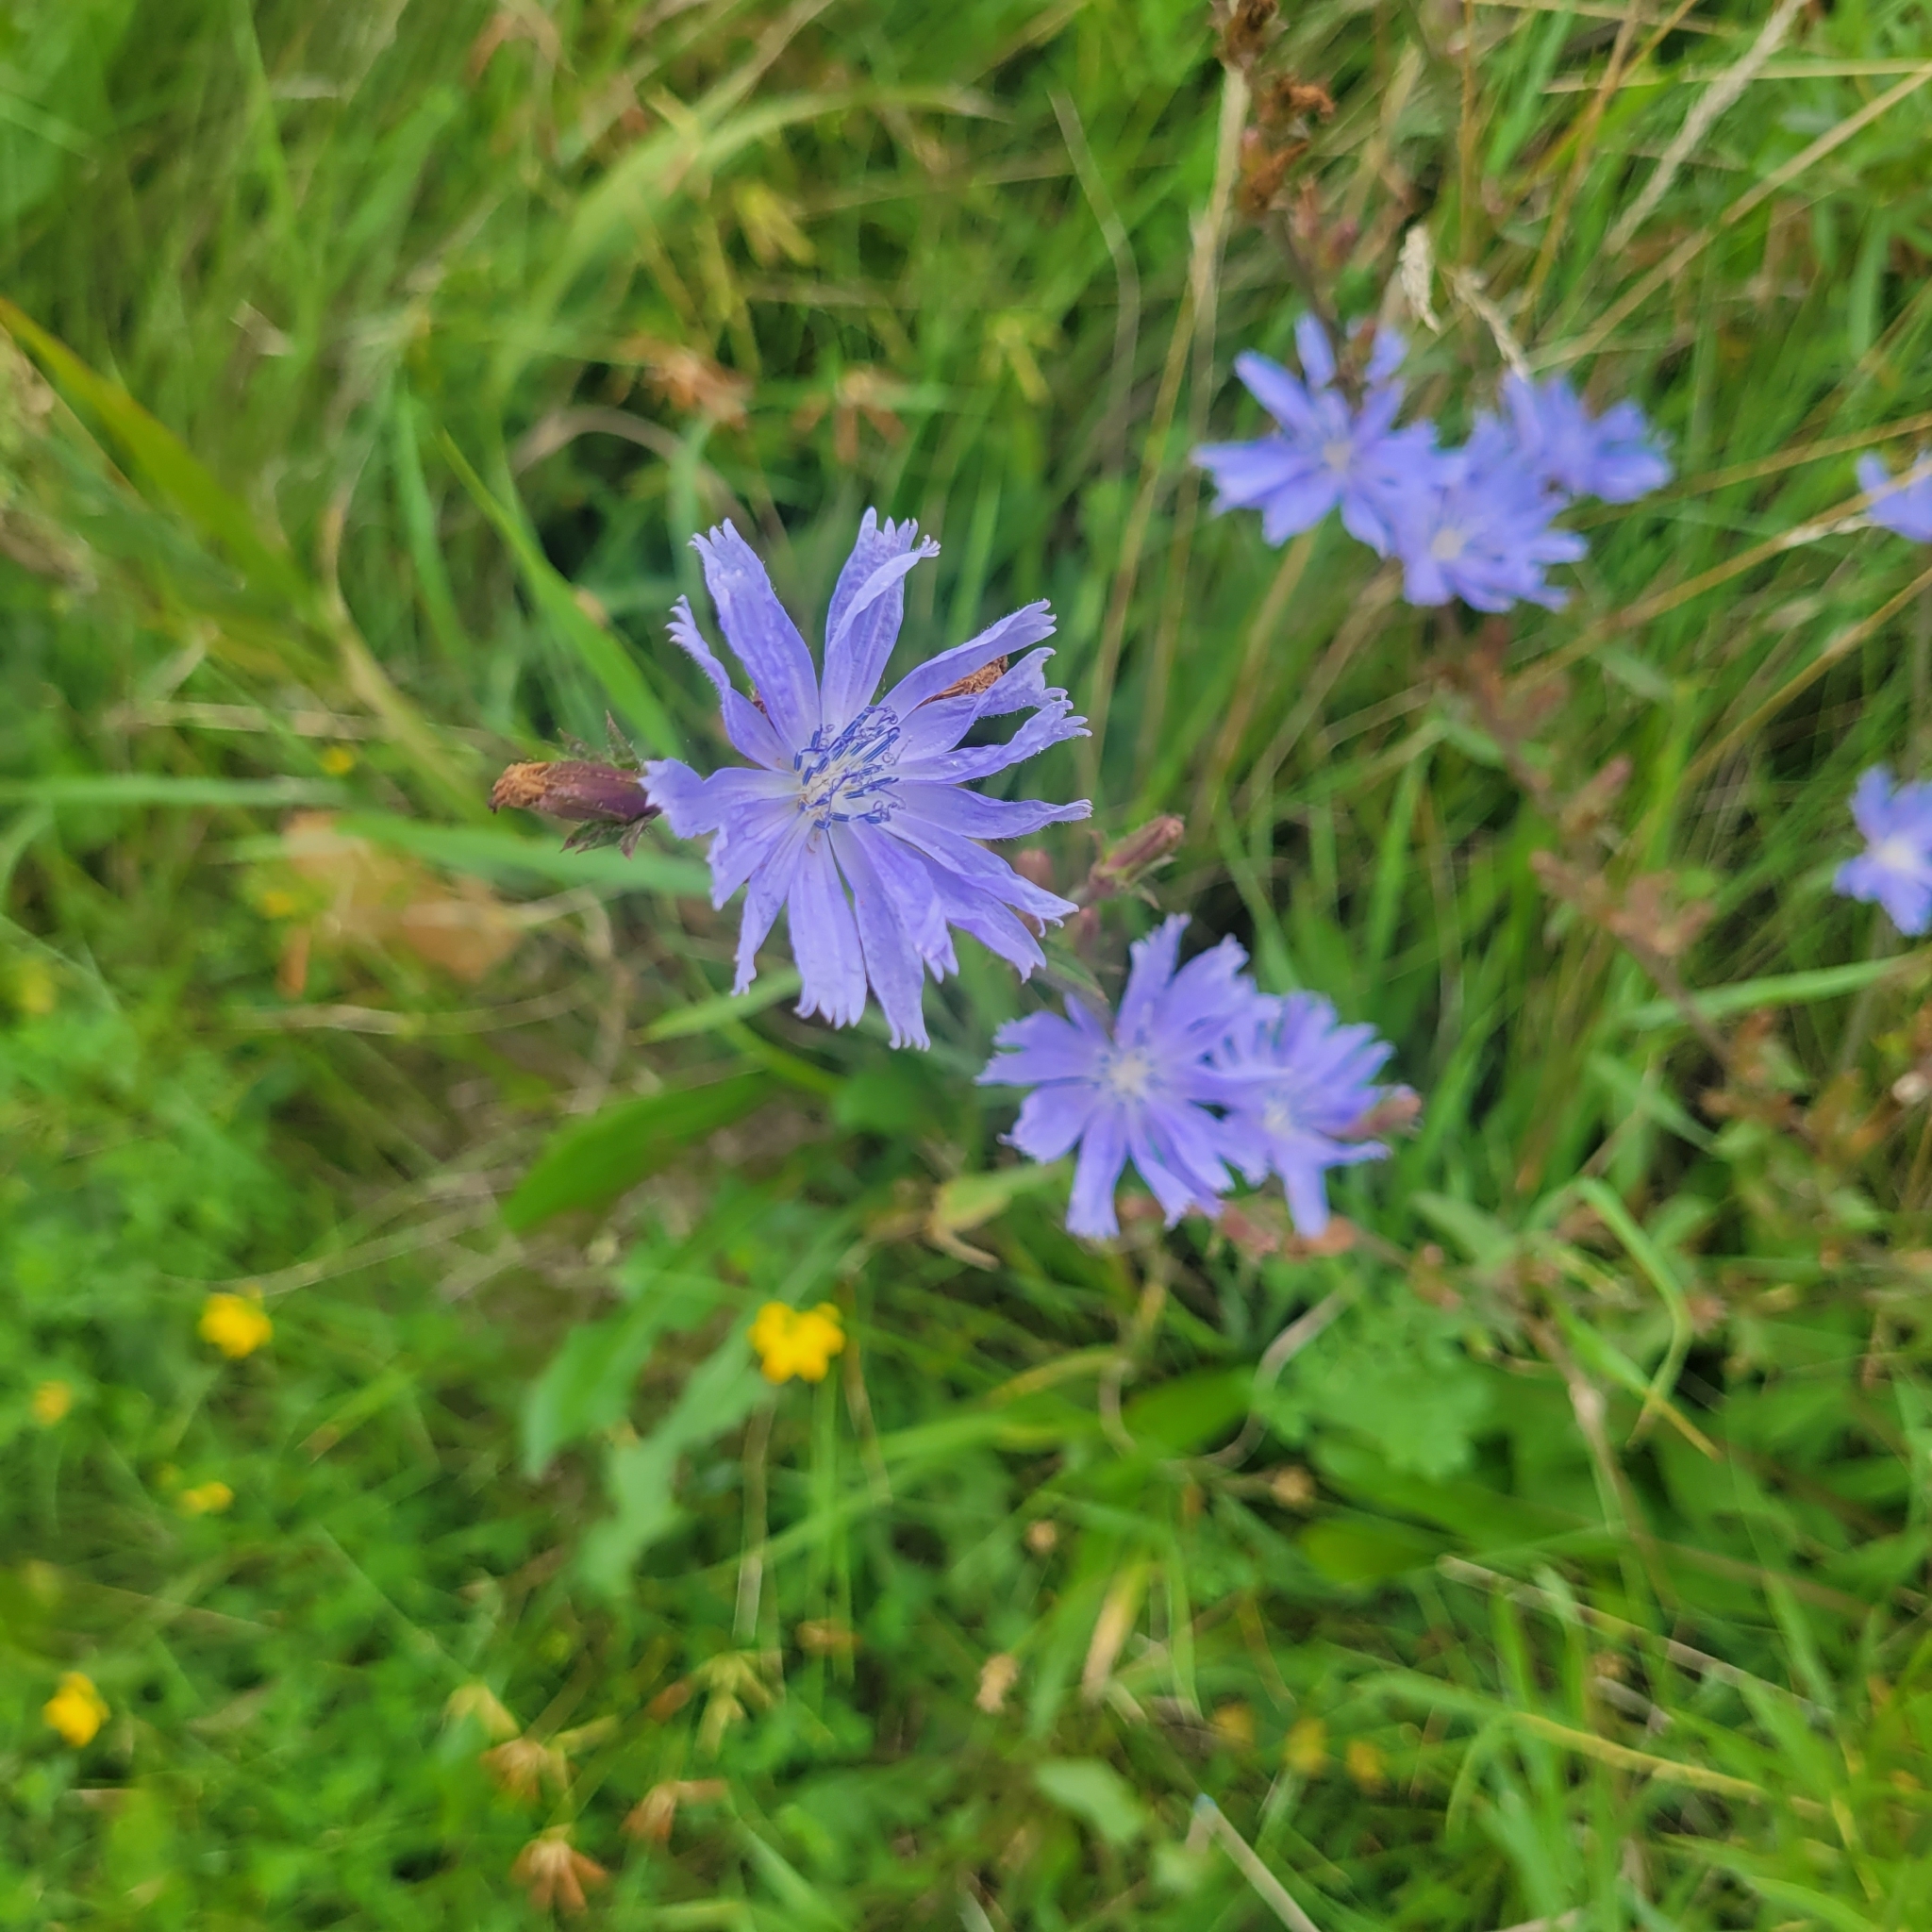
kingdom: Plantae
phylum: Tracheophyta
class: Magnoliopsida
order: Asterales
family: Asteraceae
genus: Cichorium
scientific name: Cichorium intybus
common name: Chicory
